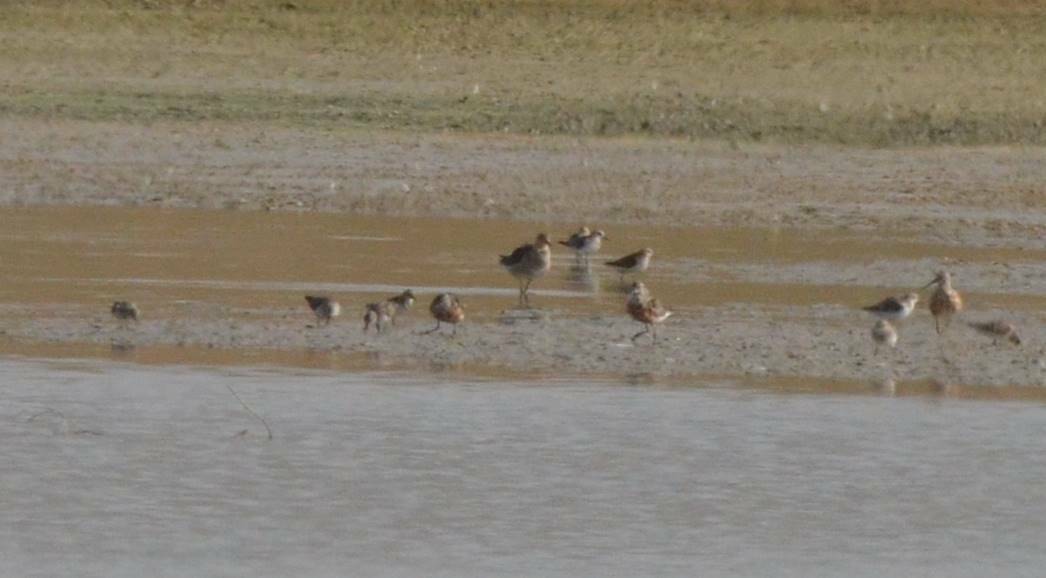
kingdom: Animalia
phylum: Chordata
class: Aves
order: Charadriiformes
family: Scolopacidae
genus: Calidris
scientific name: Calidris ferruginea
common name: Curlew sandpiper
